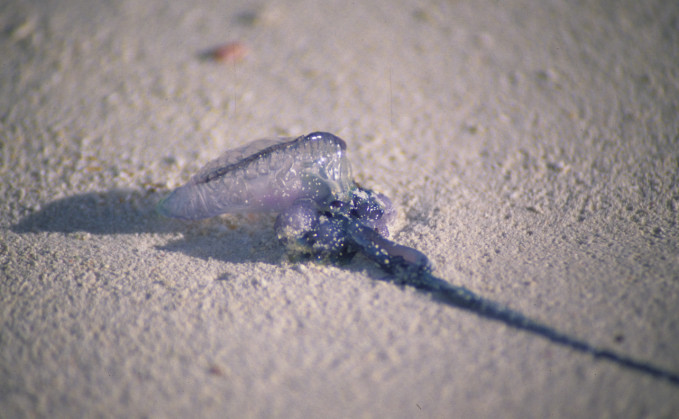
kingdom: Animalia
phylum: Cnidaria
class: Hydrozoa
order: Siphonophorae
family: Physaliidae
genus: Physalia
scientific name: Physalia physalis
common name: Portuguese man-of-war
